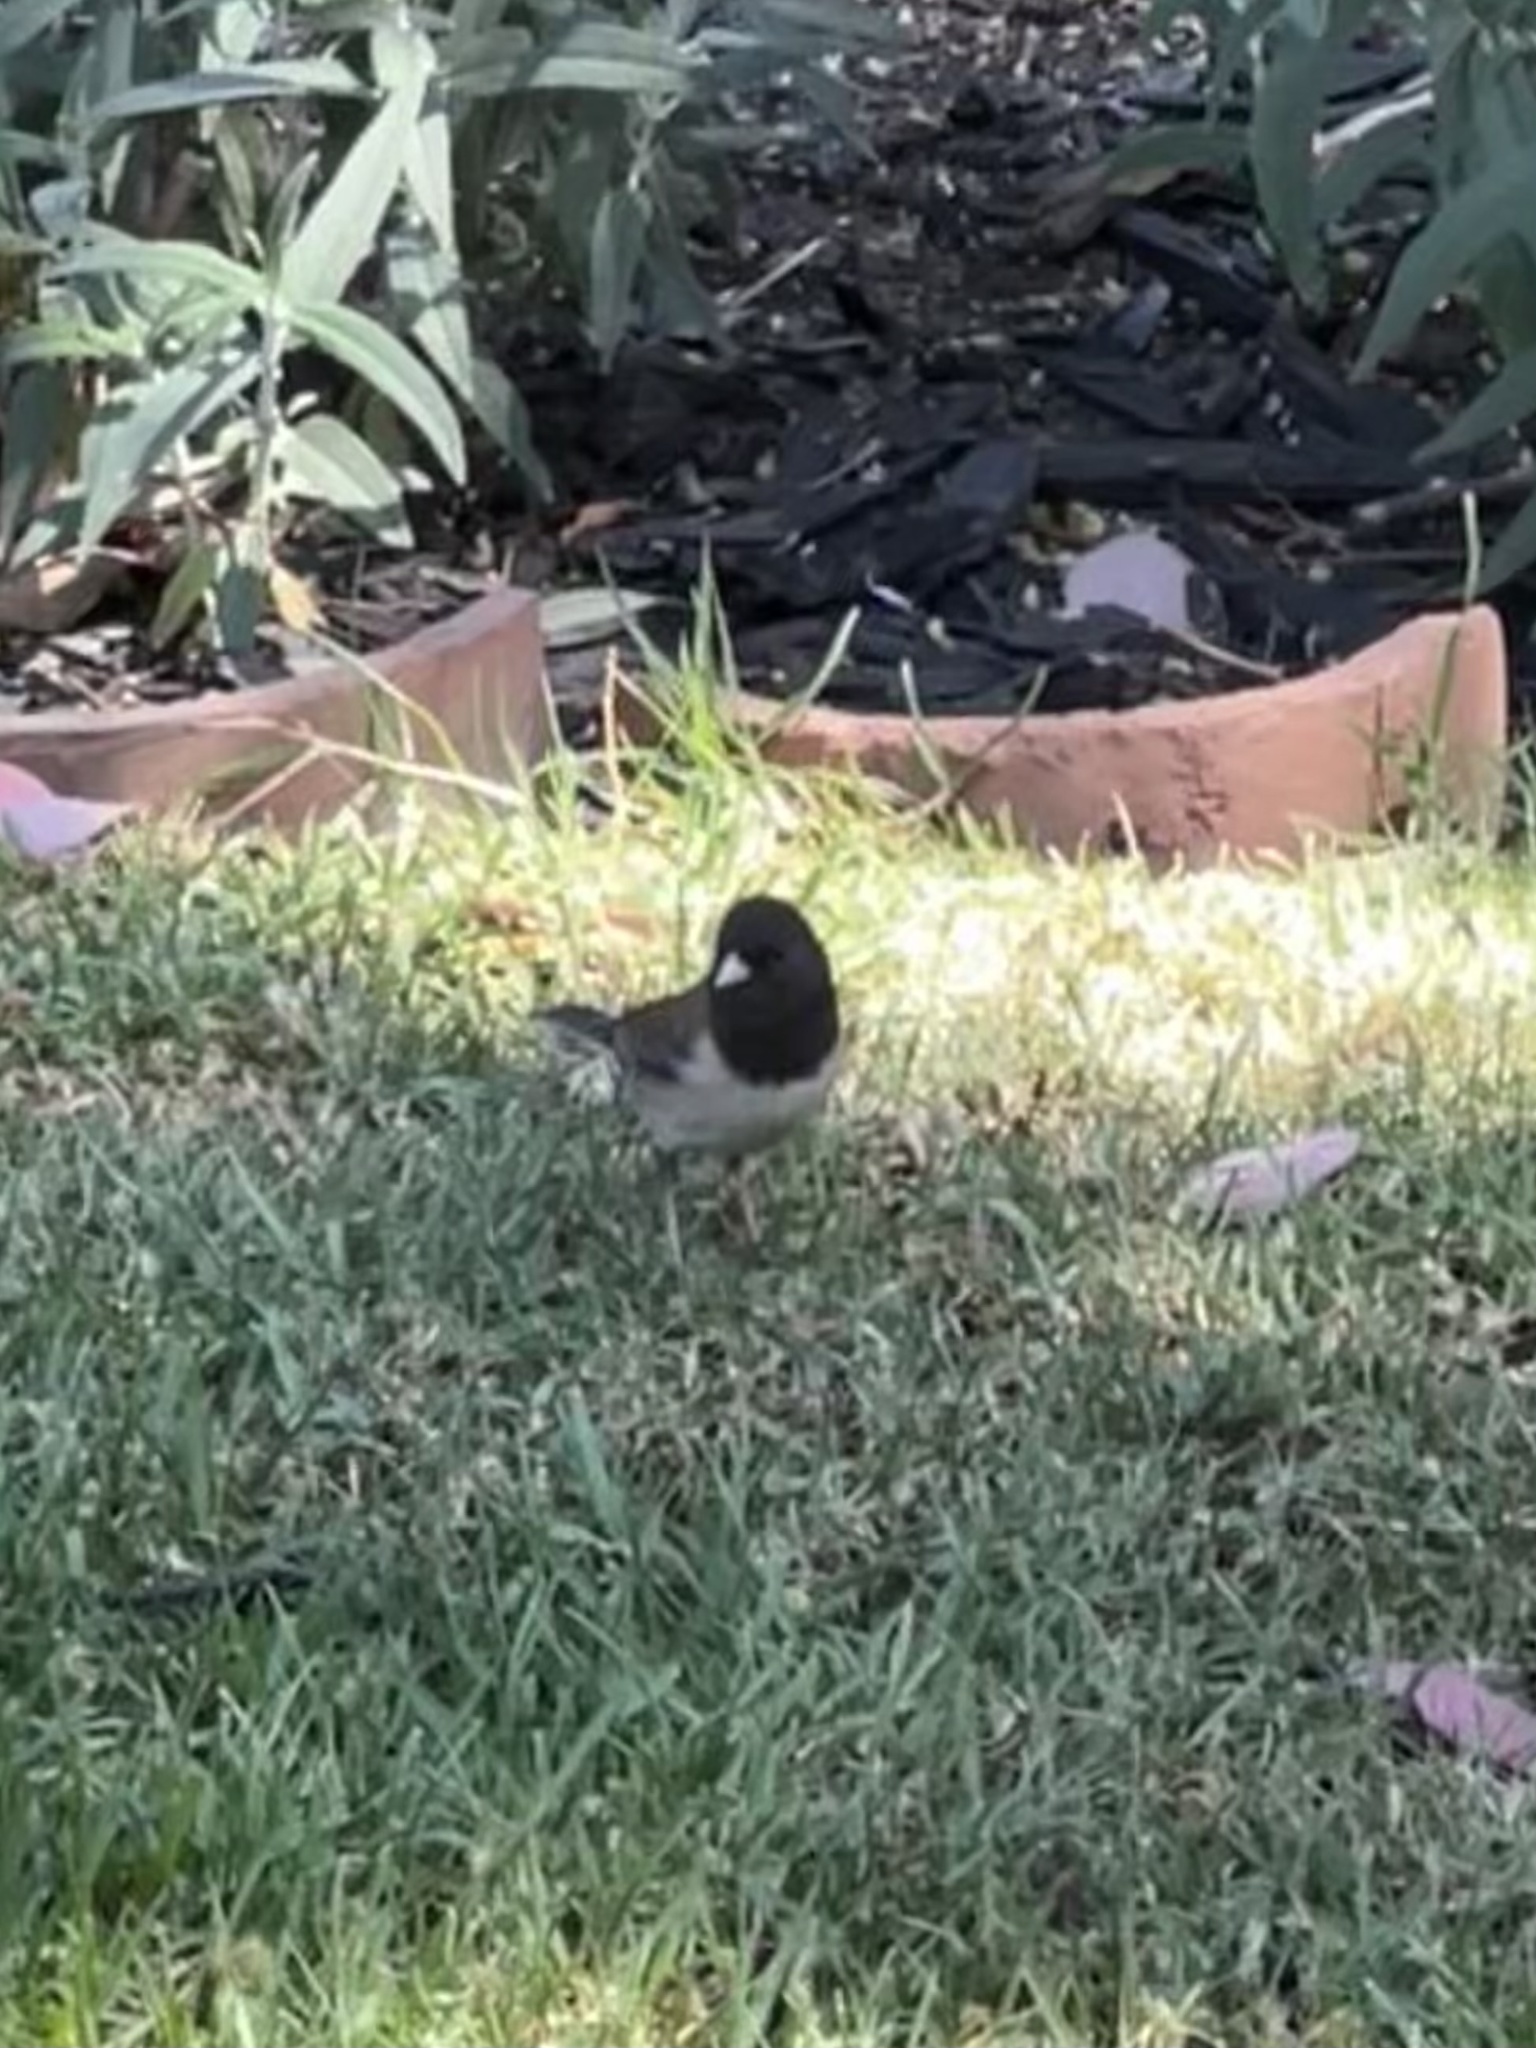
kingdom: Animalia
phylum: Chordata
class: Aves
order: Passeriformes
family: Passerellidae
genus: Junco
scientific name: Junco hyemalis
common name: Dark-eyed junco
